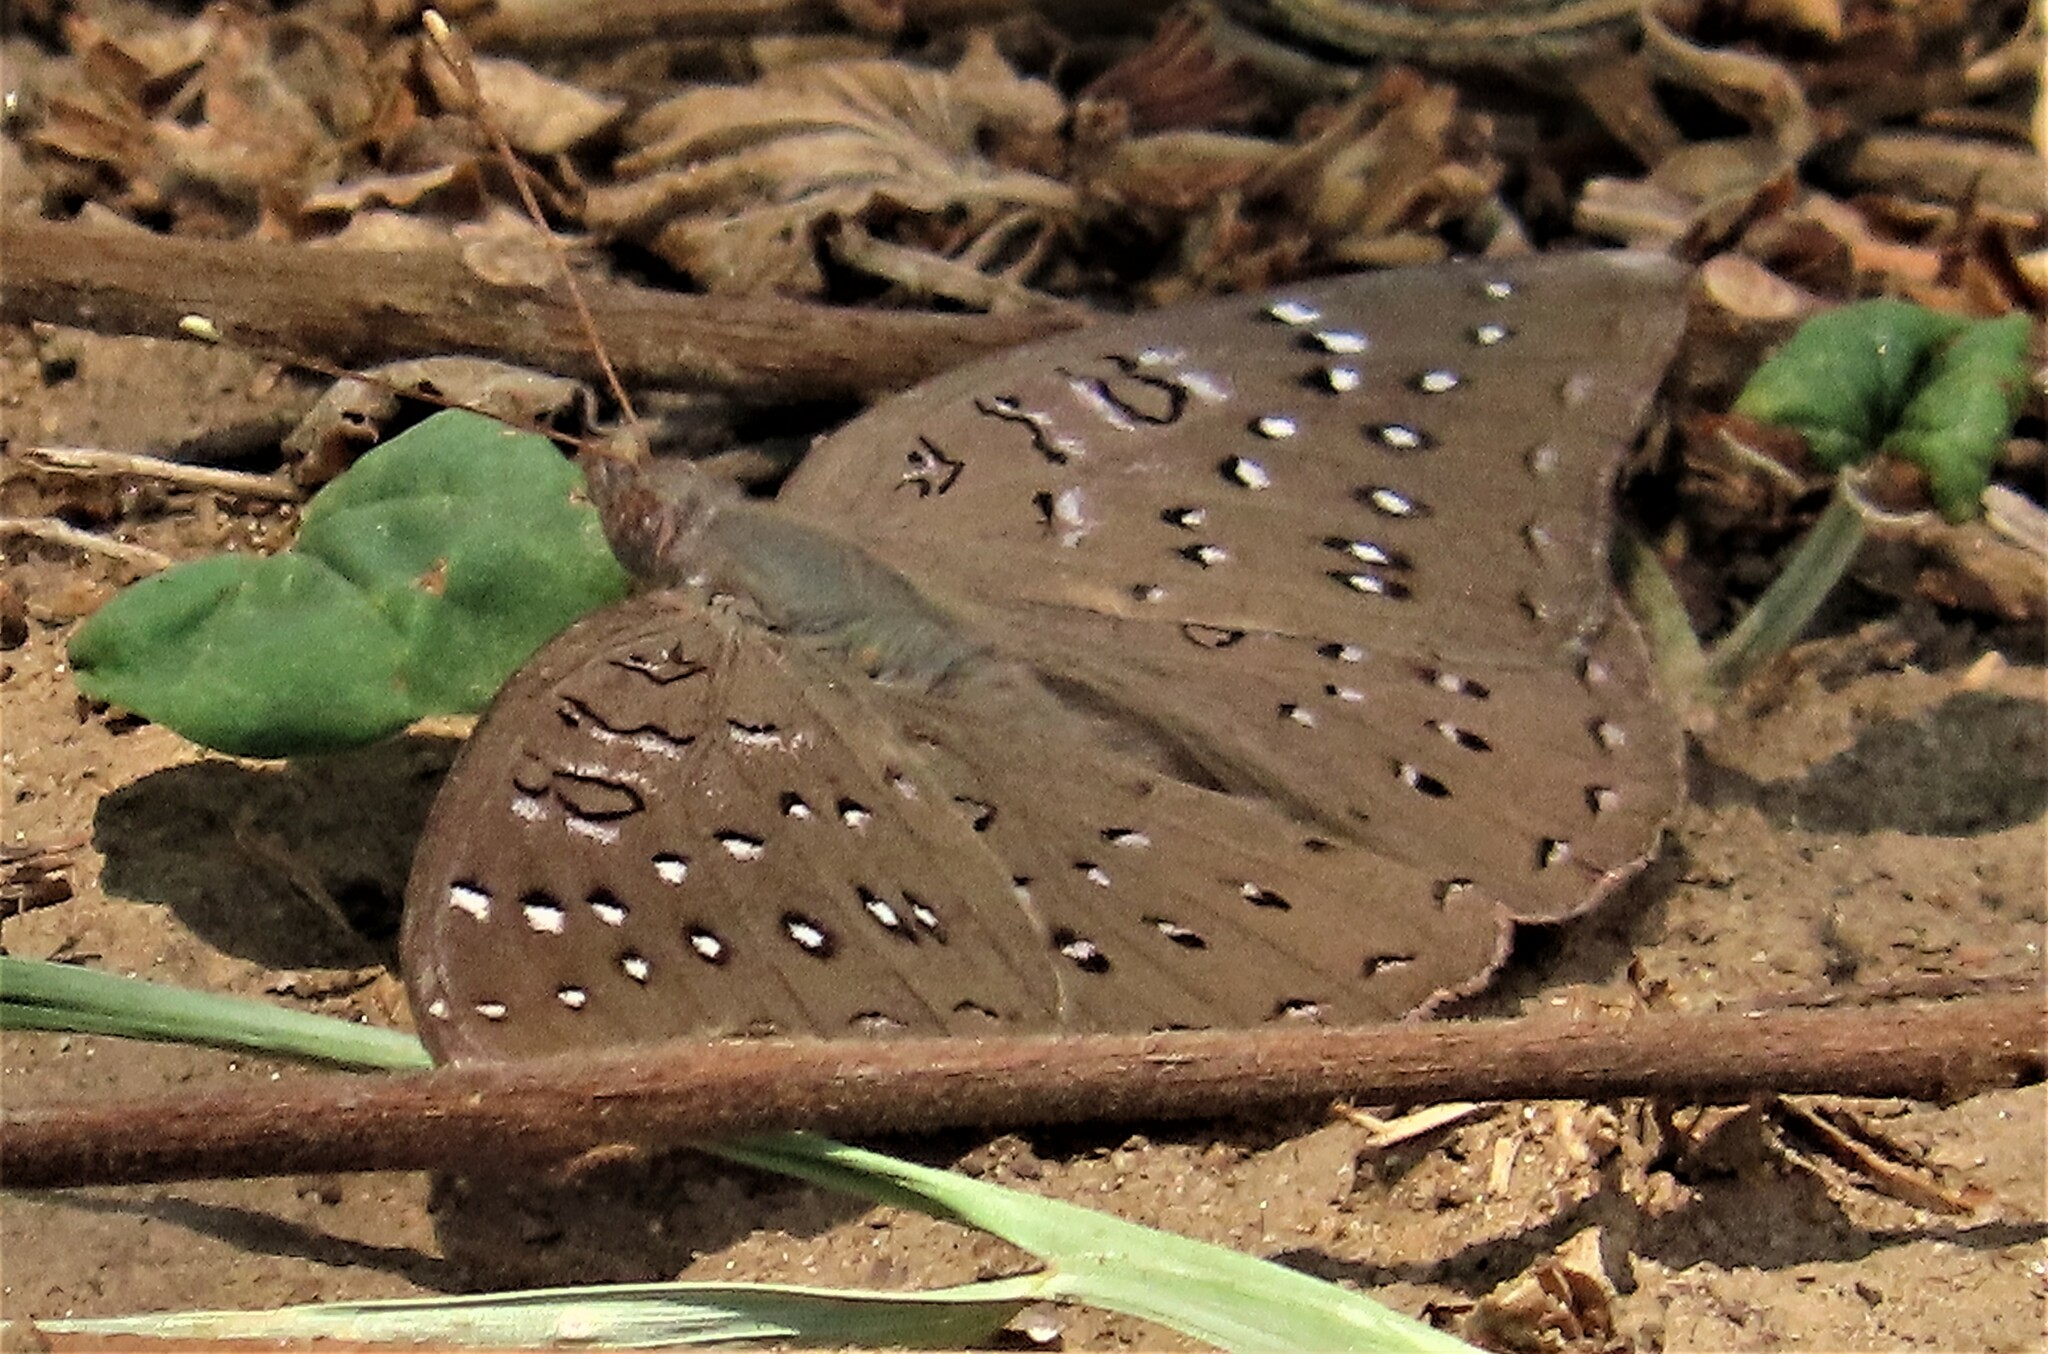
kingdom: Animalia
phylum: Arthropoda
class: Insecta
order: Lepidoptera
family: Nymphalidae
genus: Hamanumida
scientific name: Hamanumida daedalus
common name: Guinea-fowl butterfly
